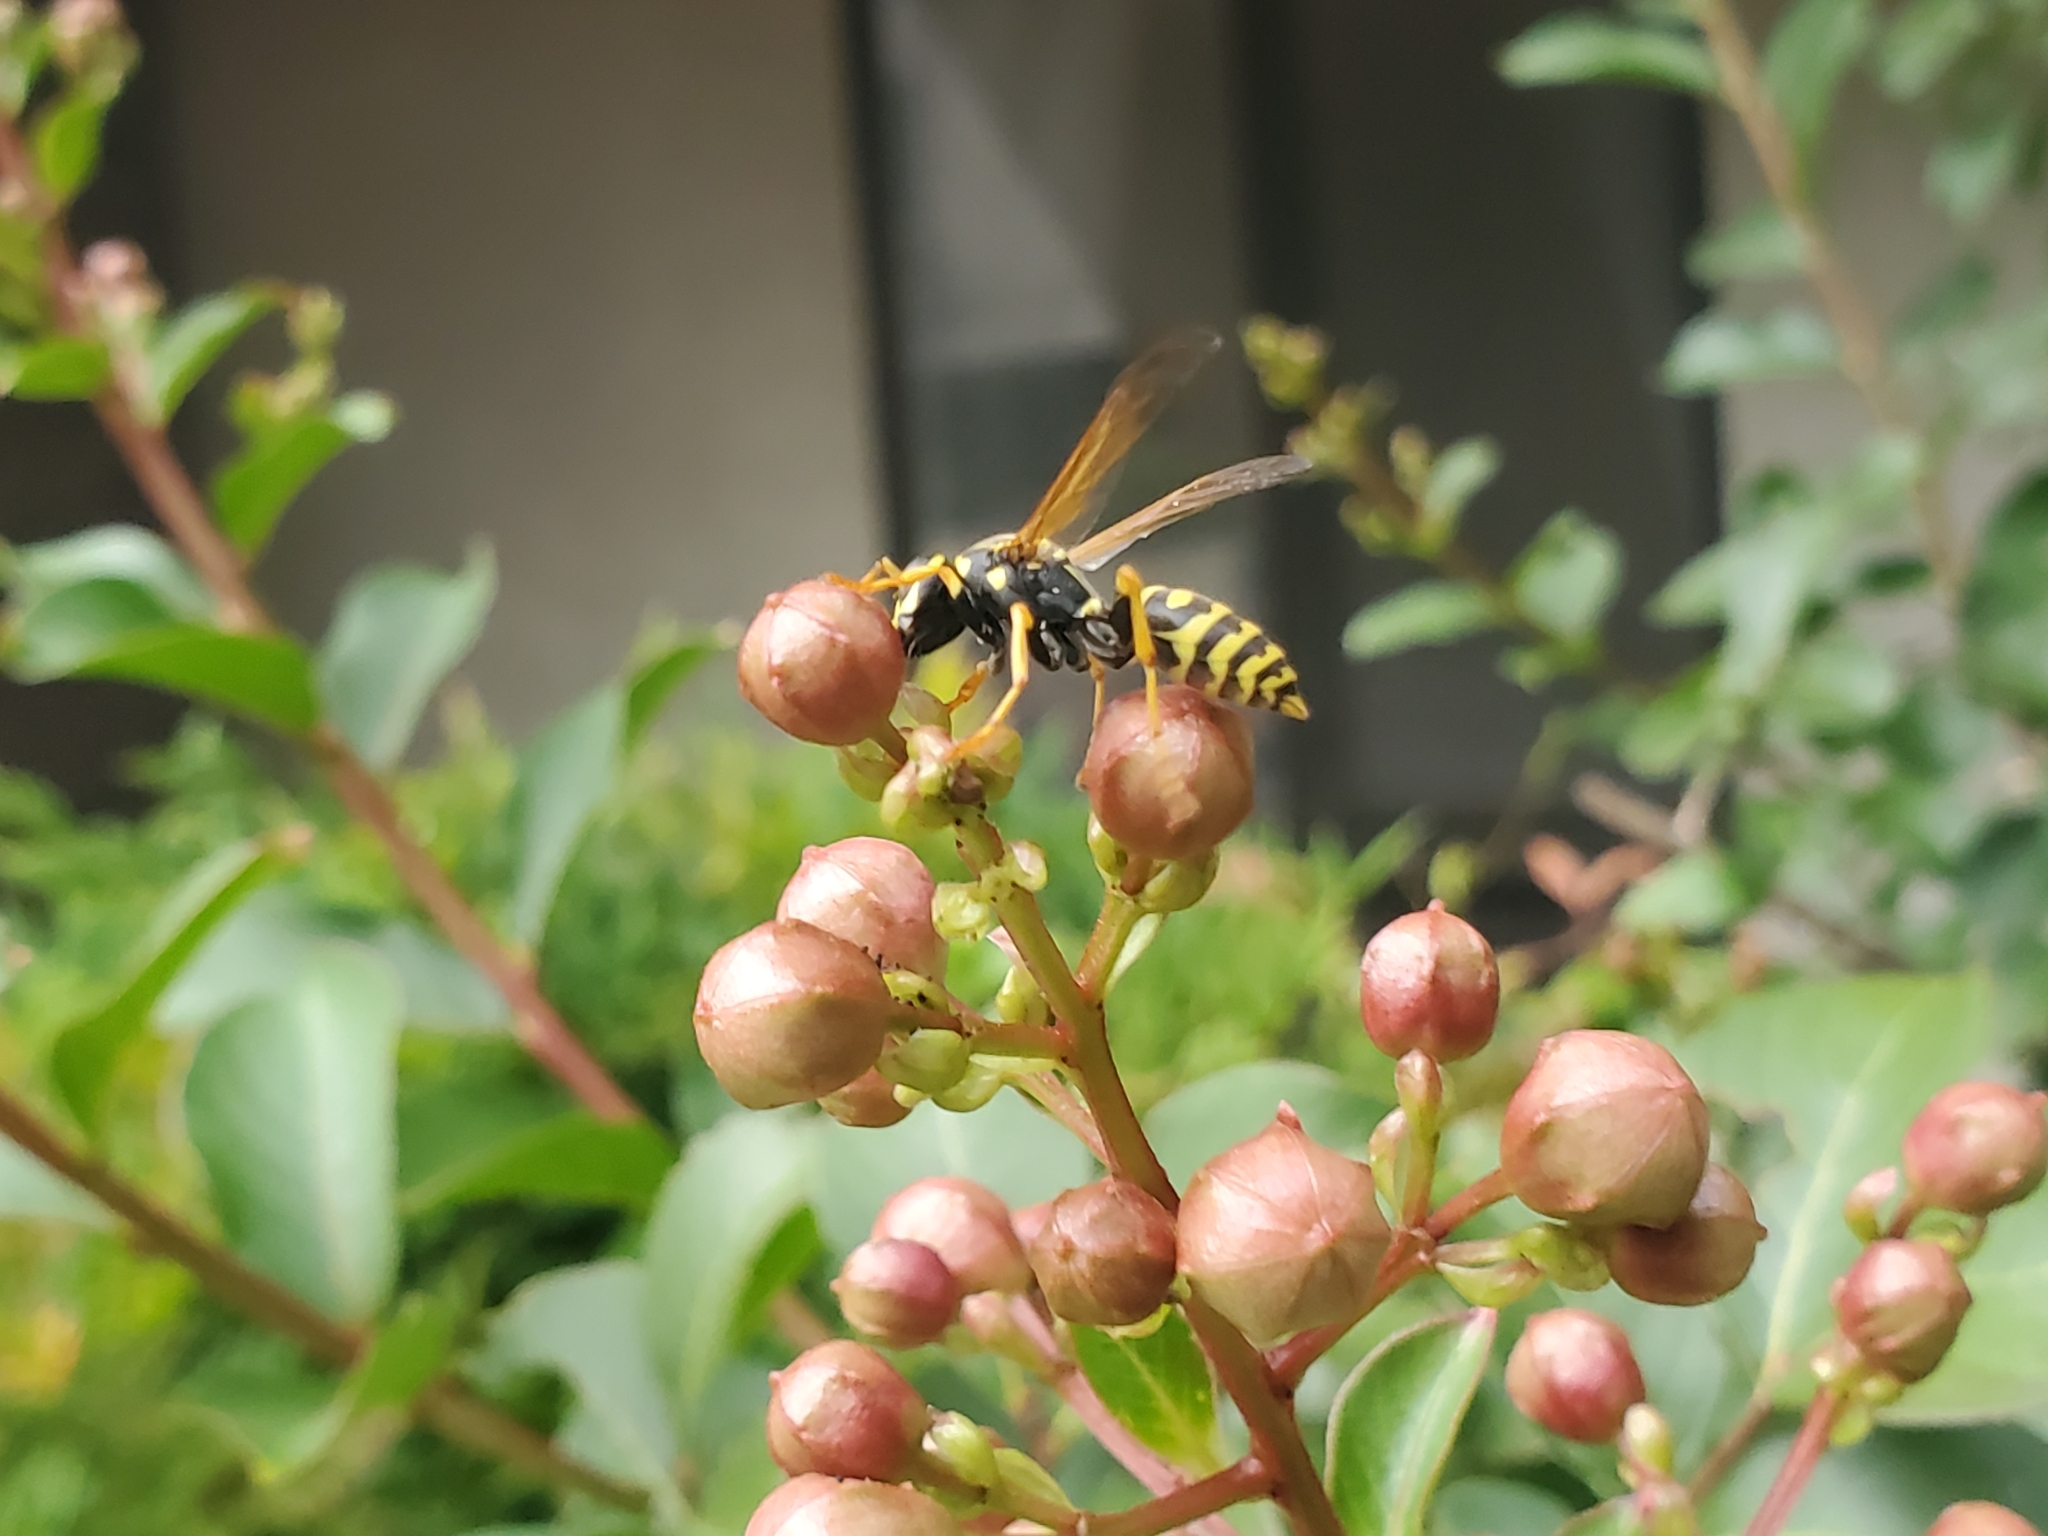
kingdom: Animalia
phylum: Arthropoda
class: Insecta
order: Hymenoptera
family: Eumenidae
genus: Polistes
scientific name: Polistes dominula
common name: Paper wasp
